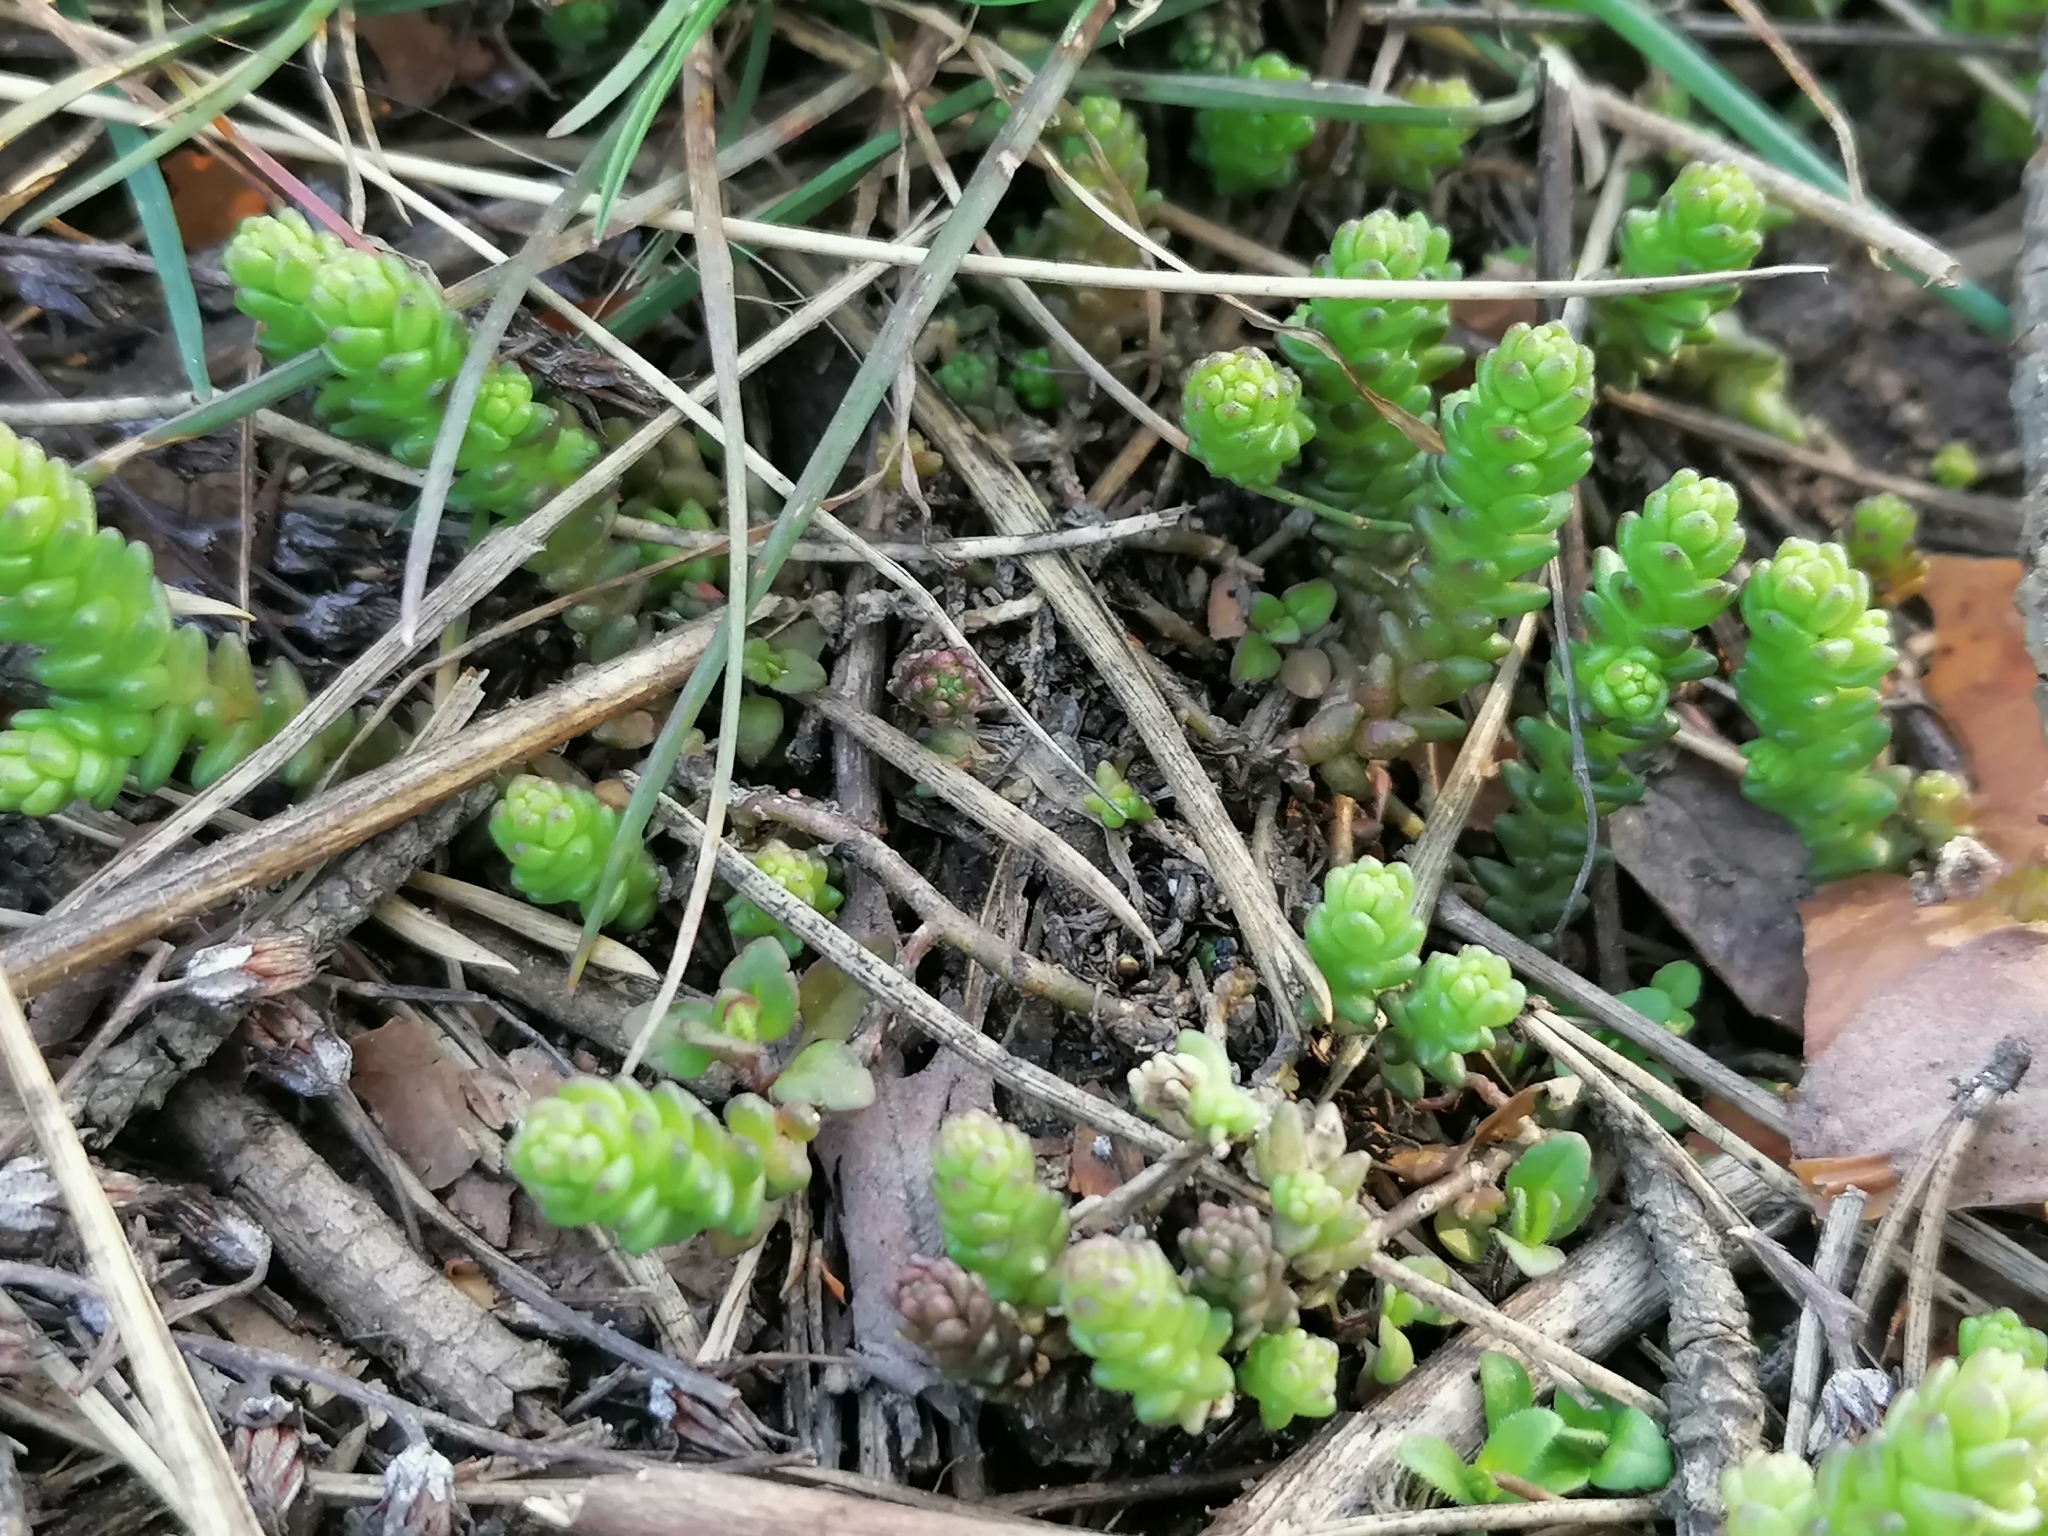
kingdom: Plantae
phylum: Tracheophyta
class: Magnoliopsida
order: Saxifragales
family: Crassulaceae
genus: Sedum
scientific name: Sedum acre
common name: Biting stonecrop
